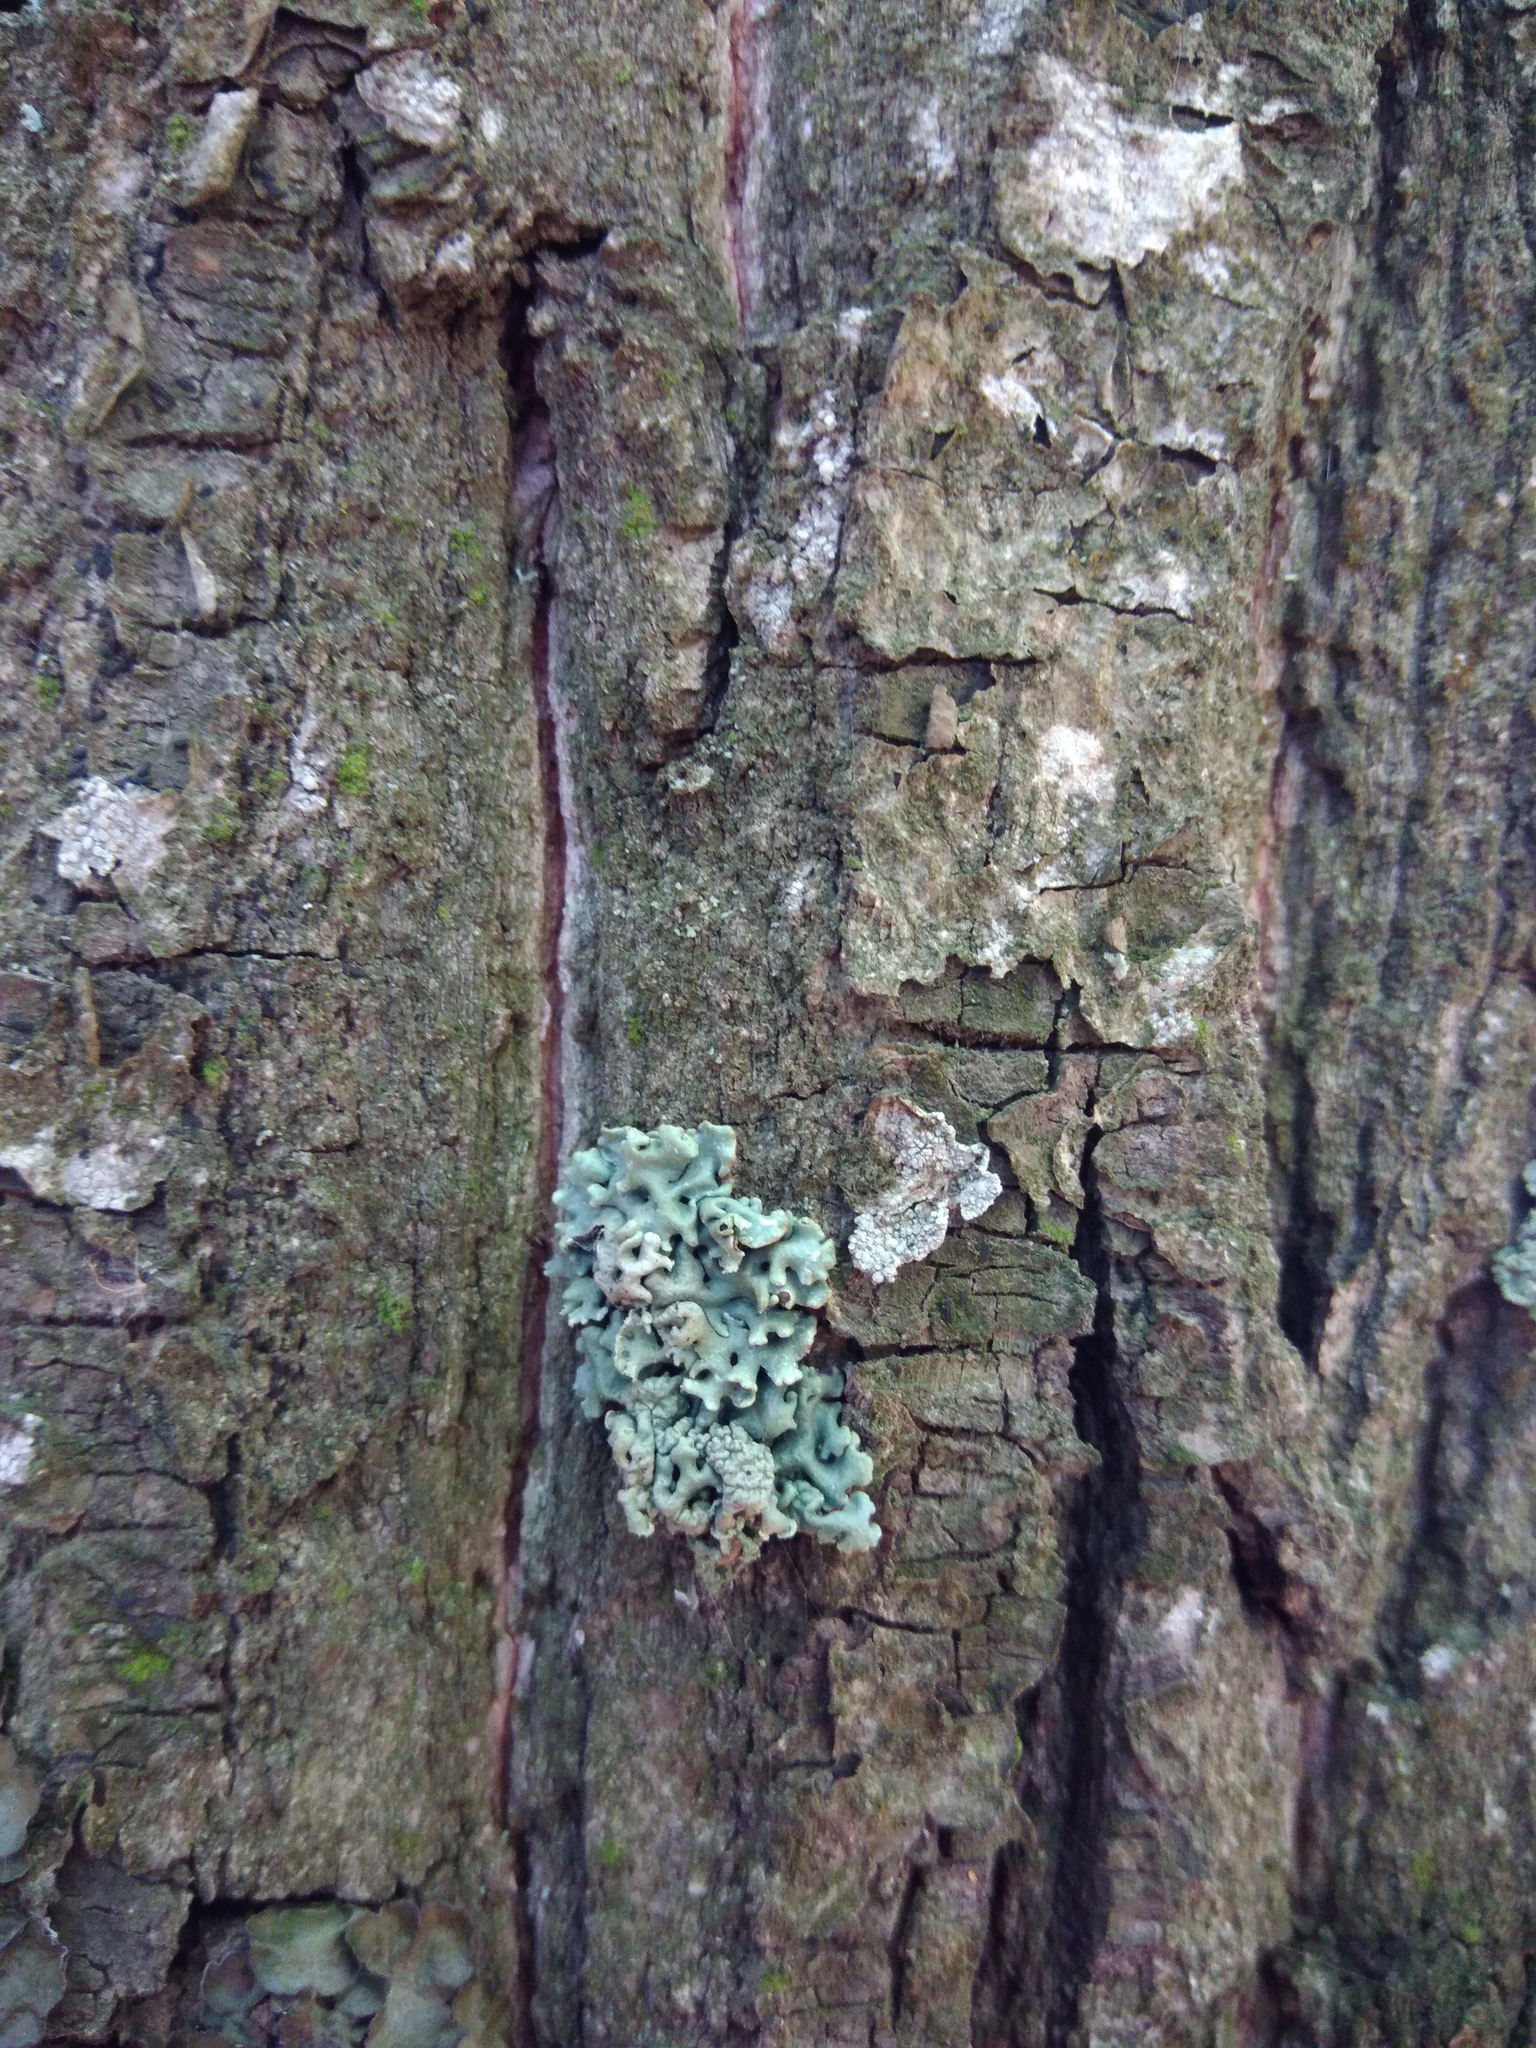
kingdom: Fungi
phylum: Ascomycota
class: Lecanoromycetes
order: Lecanorales
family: Parmeliaceae
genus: Hypogymnia
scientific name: Hypogymnia physodes
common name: Dark crottle
